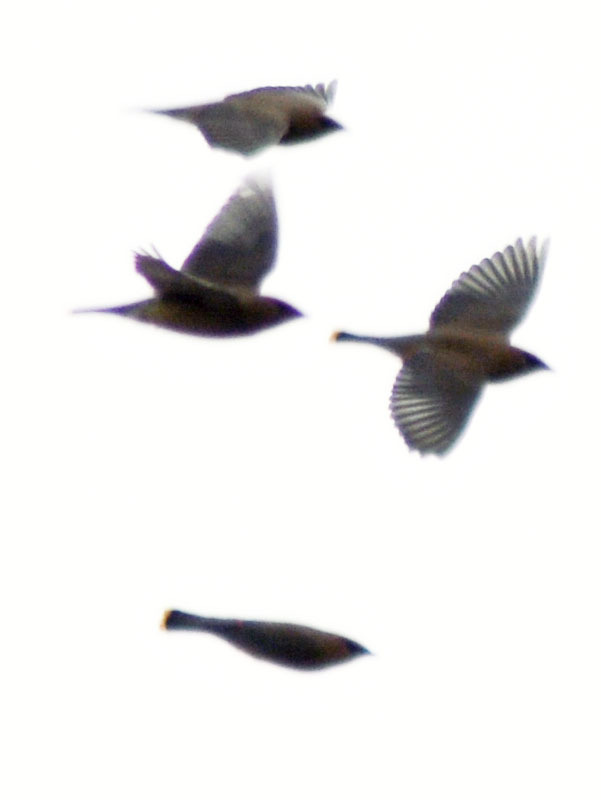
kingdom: Animalia
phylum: Chordata
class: Aves
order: Passeriformes
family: Bombycillidae
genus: Bombycilla
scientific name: Bombycilla cedrorum
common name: Cedar waxwing
